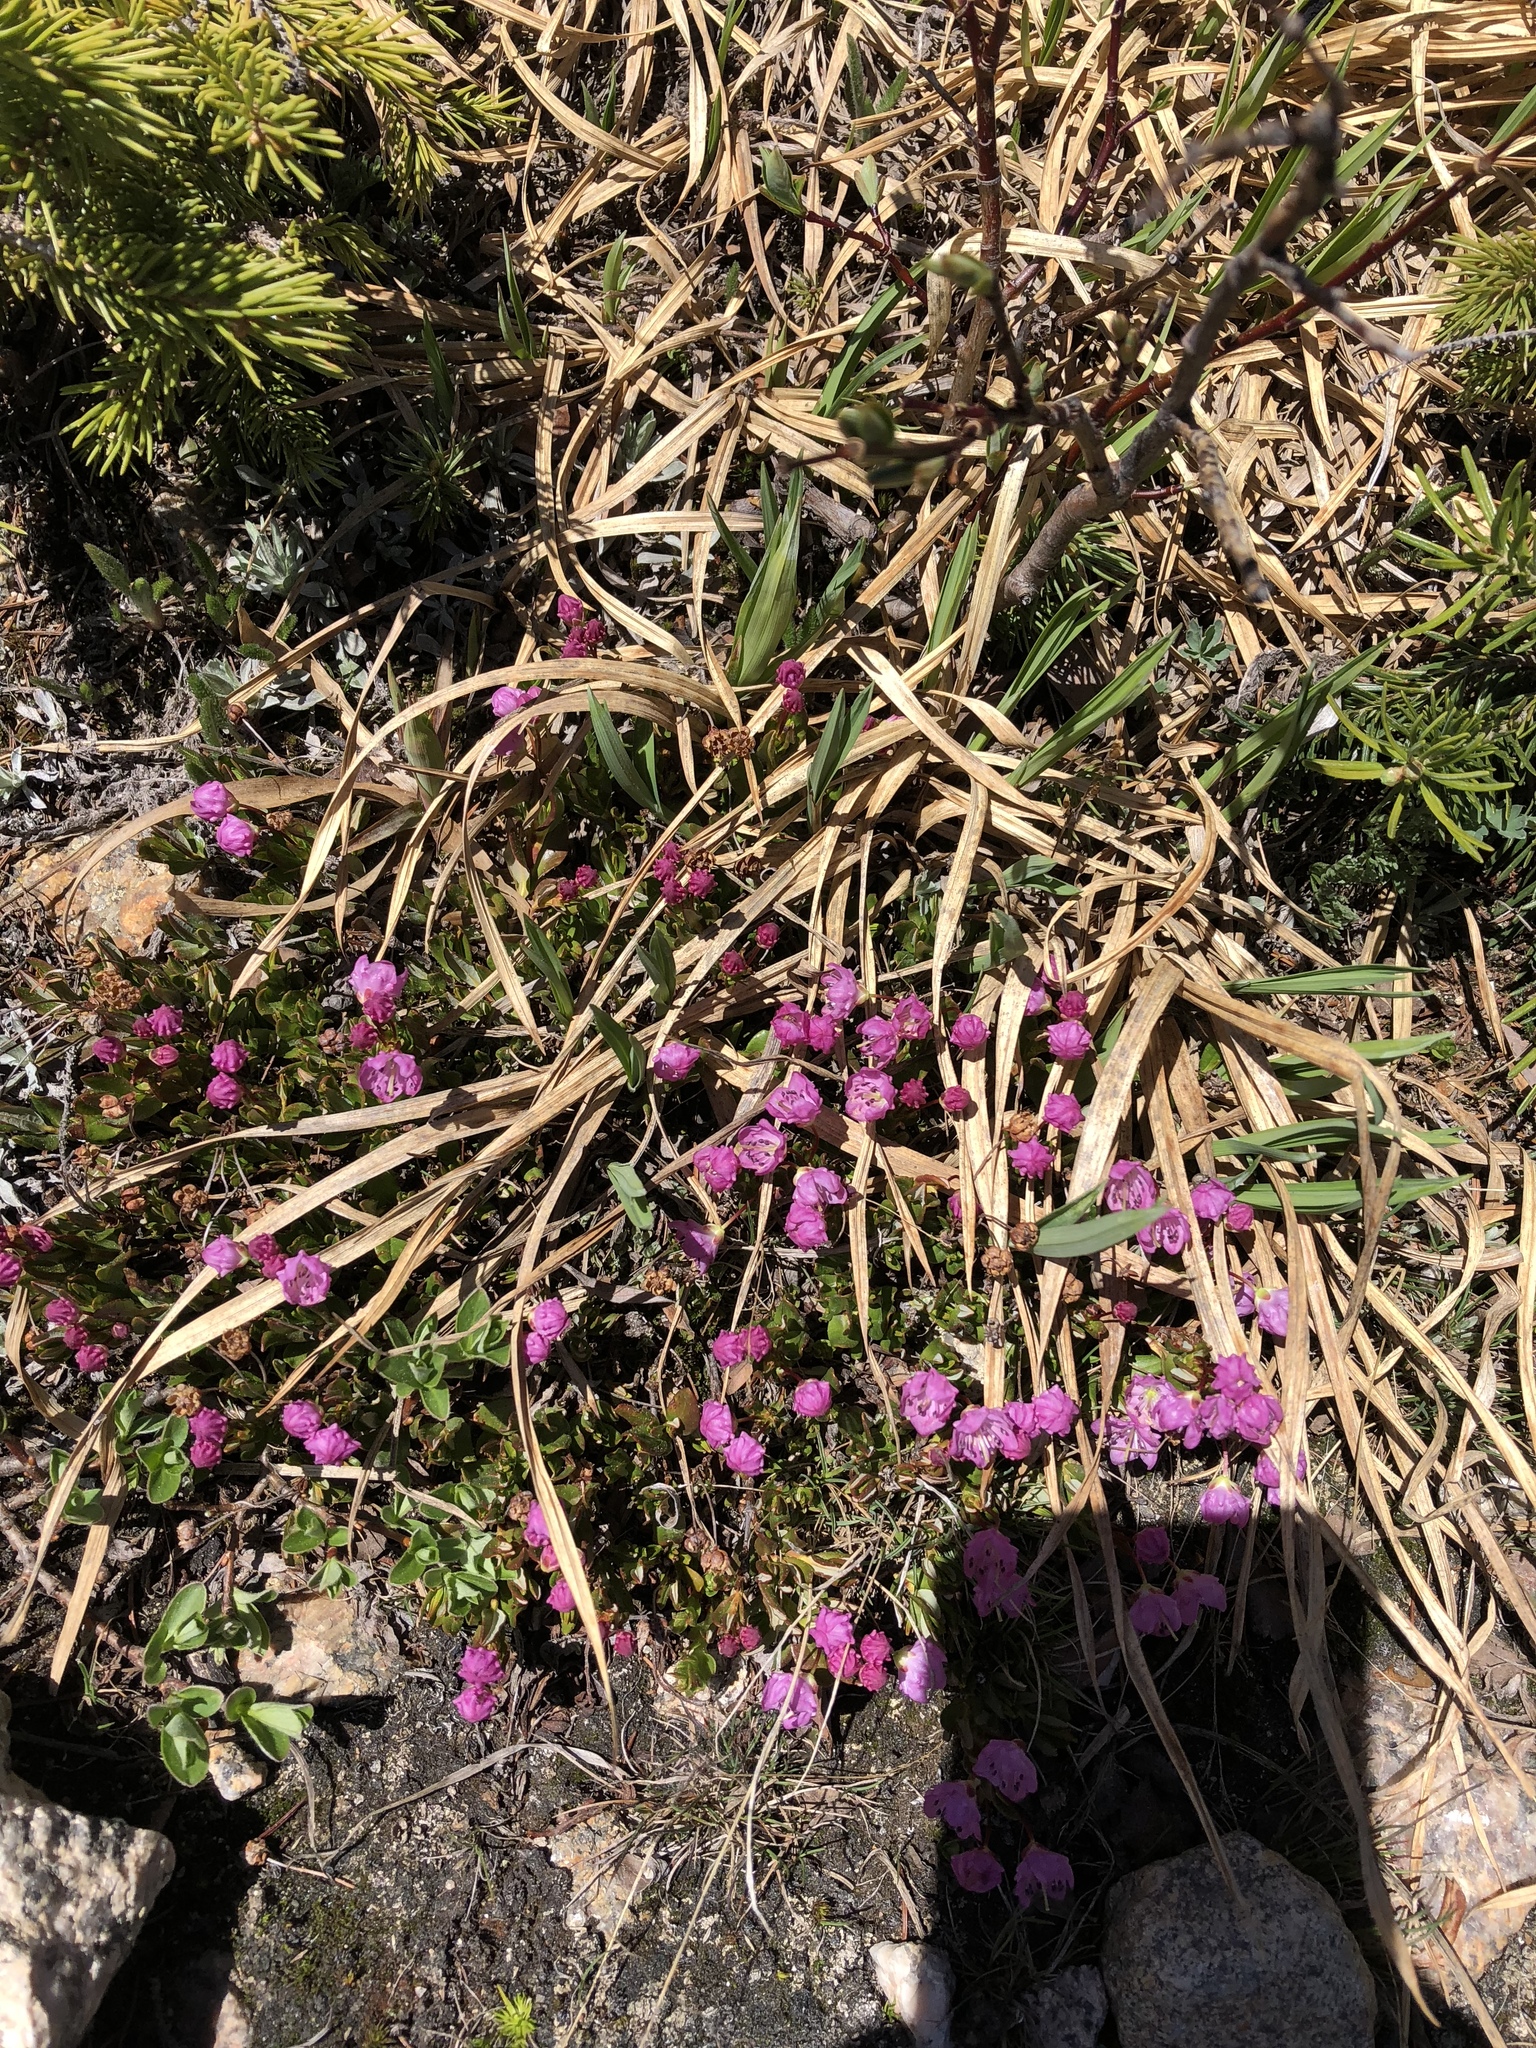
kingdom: Plantae
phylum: Tracheophyta
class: Magnoliopsida
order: Ericales
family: Ericaceae
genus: Kalmia
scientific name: Kalmia microphylla
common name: Alpine bog laurel
